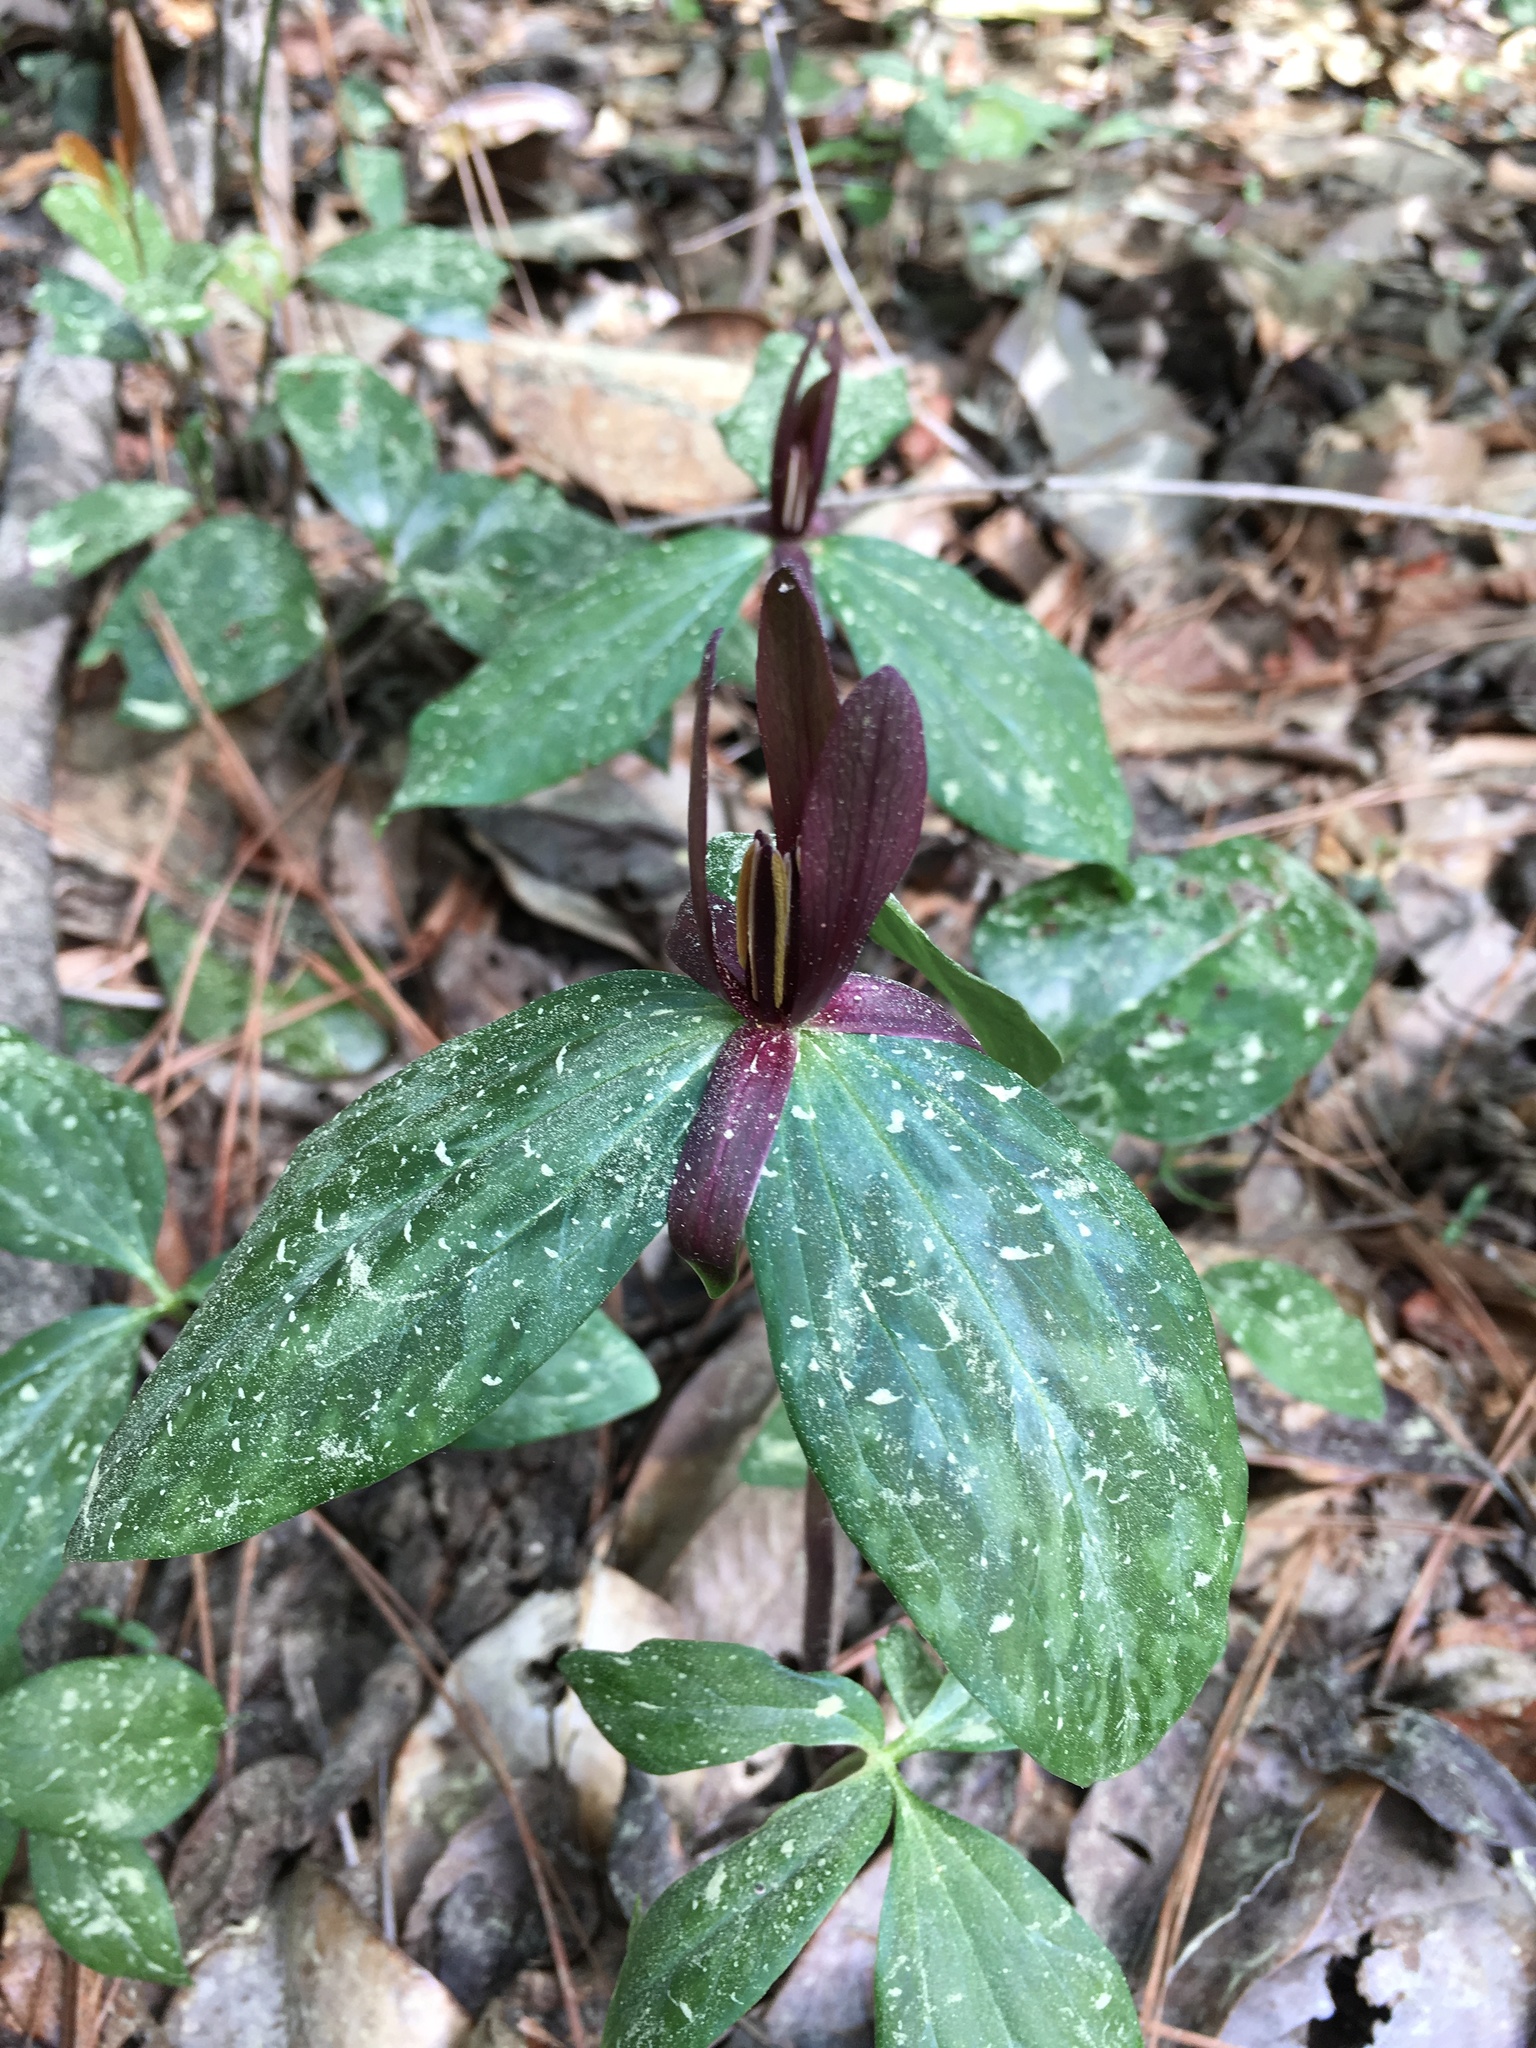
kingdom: Plantae
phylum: Tracheophyta
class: Liliopsida
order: Liliales
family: Melanthiaceae
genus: Trillium
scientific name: Trillium gracile
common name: Graceful trillium
